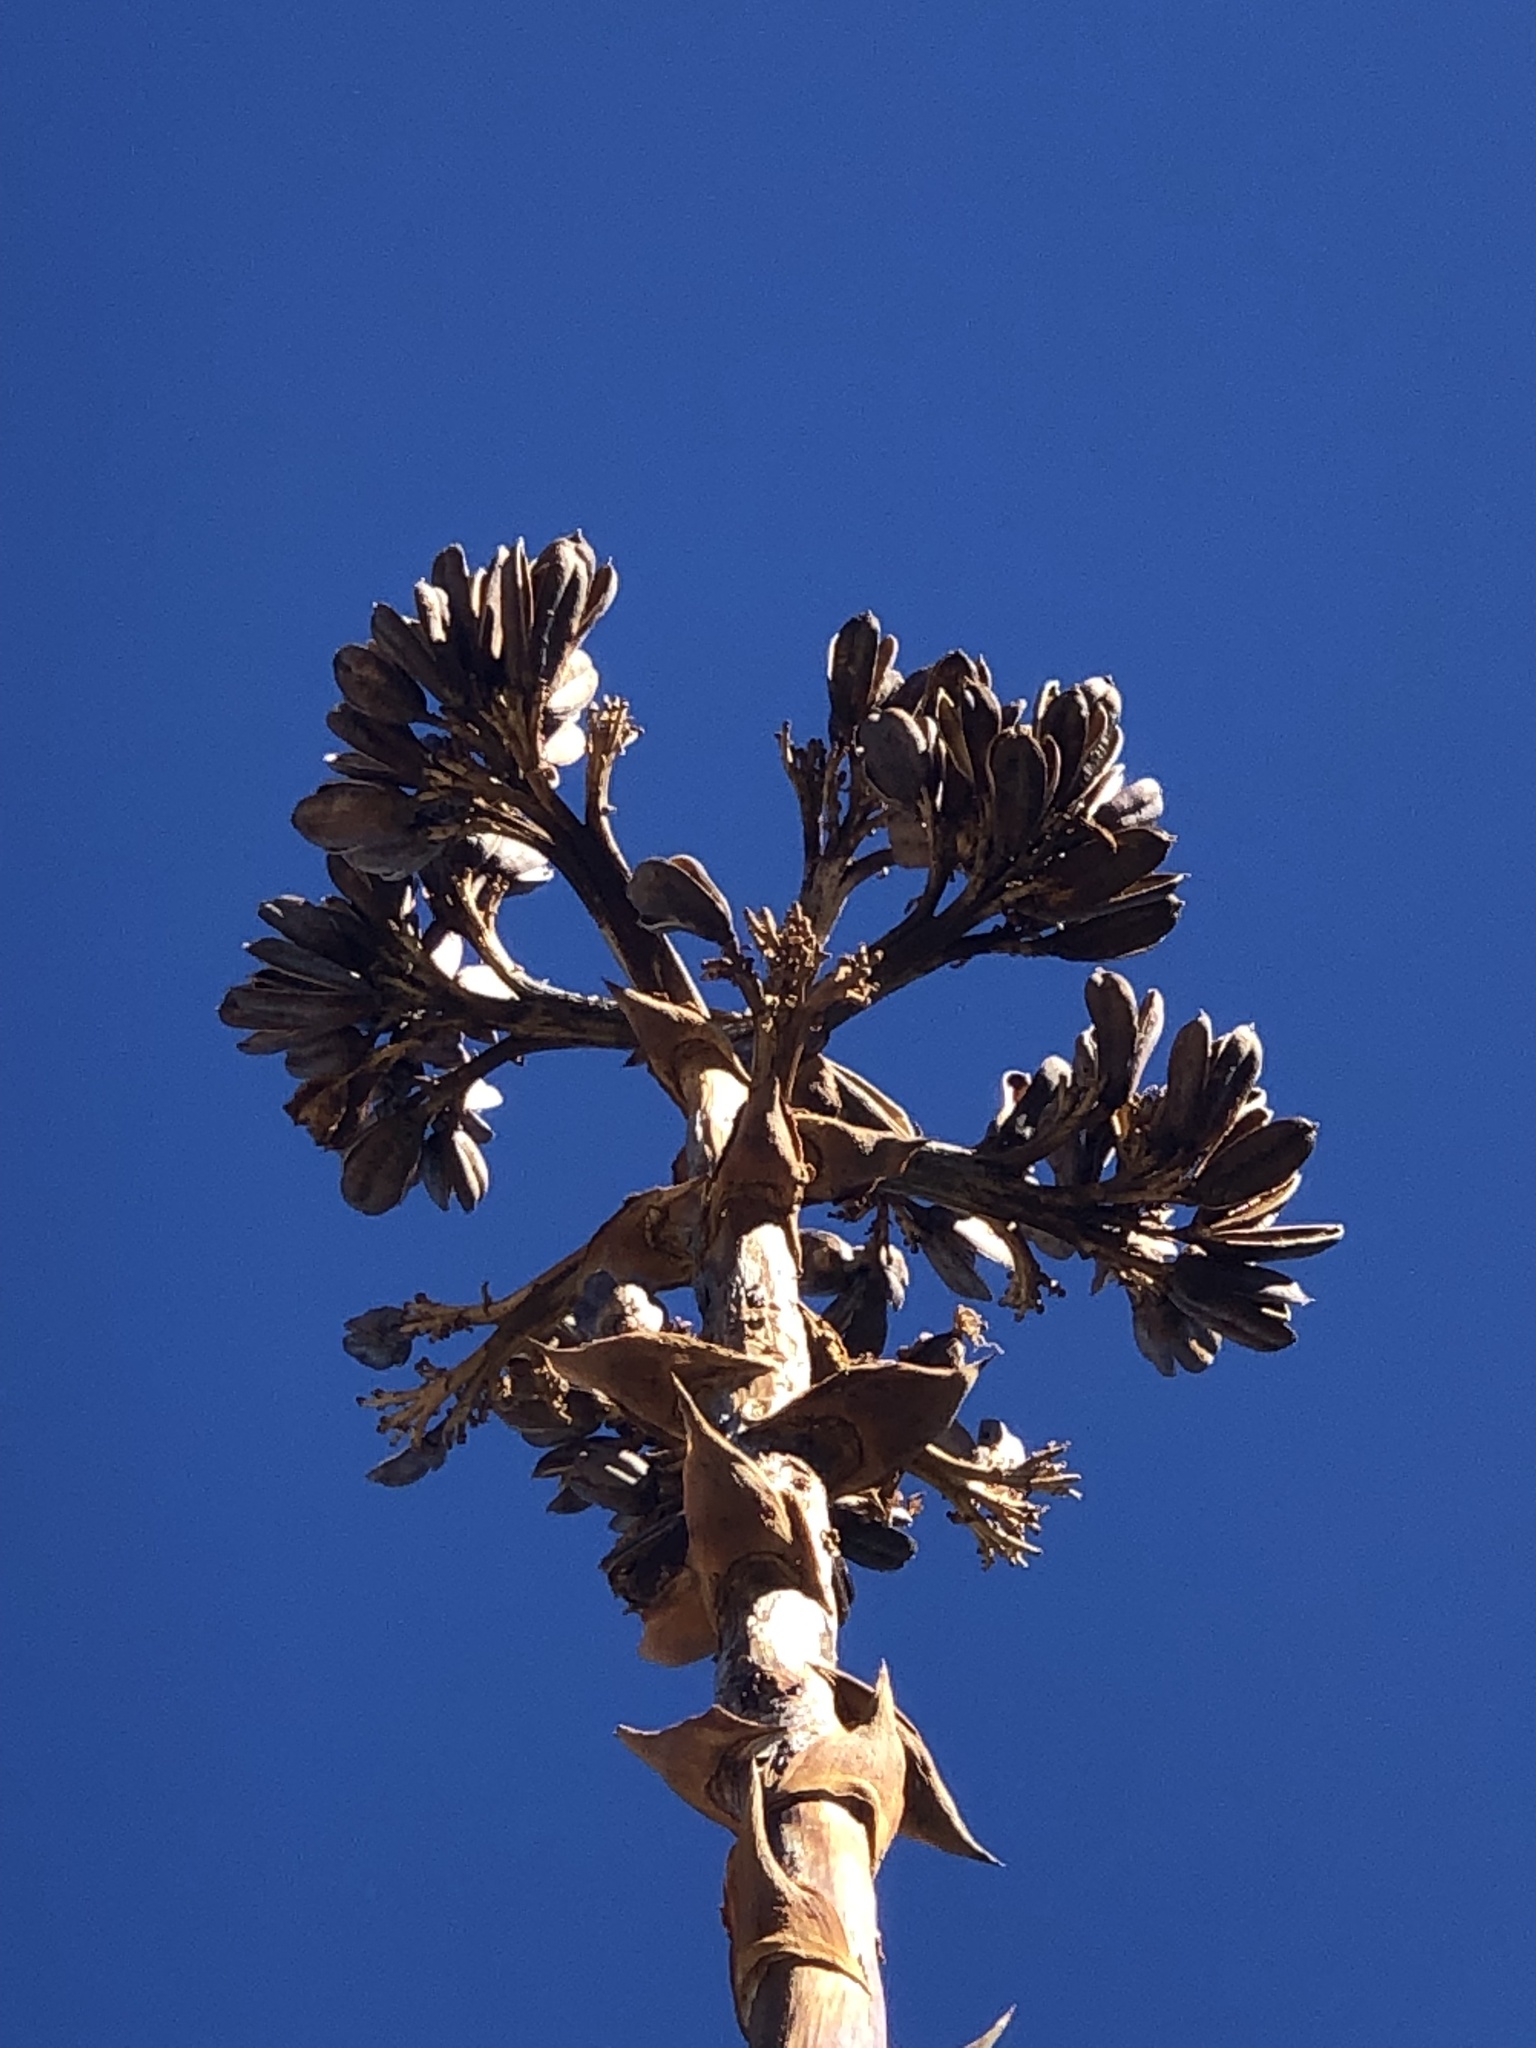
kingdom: Plantae
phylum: Tracheophyta
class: Liliopsida
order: Asparagales
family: Asparagaceae
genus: Agave
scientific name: Agave deserti
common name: Desert agave
